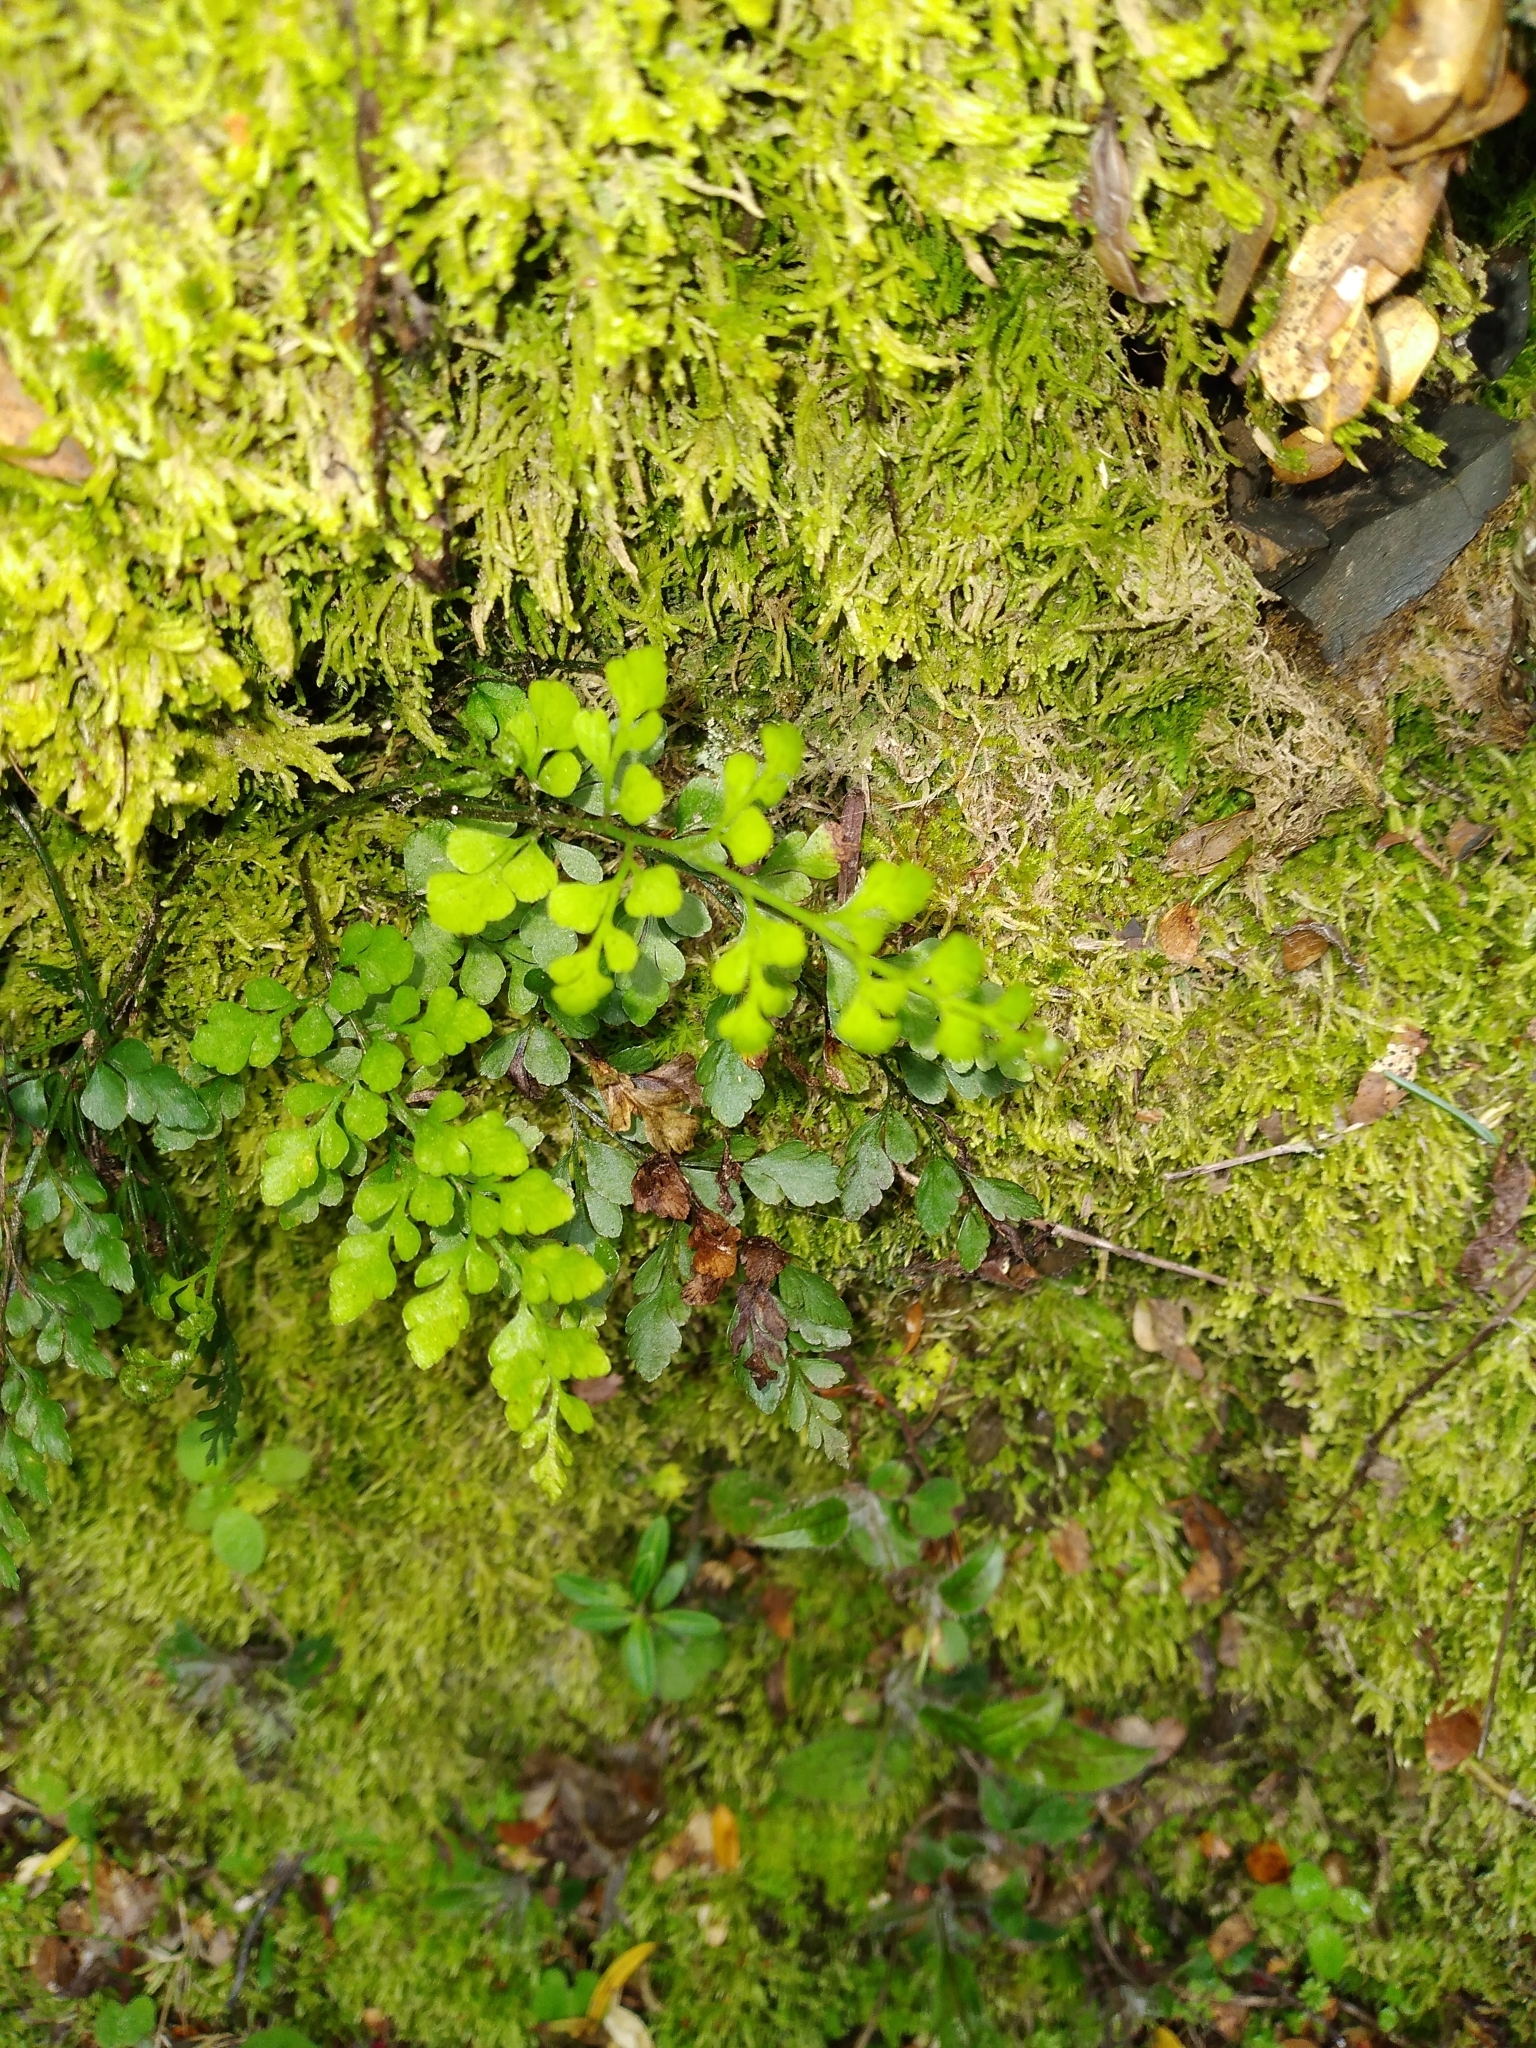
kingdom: Plantae
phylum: Tracheophyta
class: Polypodiopsida
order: Polypodiales
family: Aspleniaceae
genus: Asplenium
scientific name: Asplenium hookerianum
